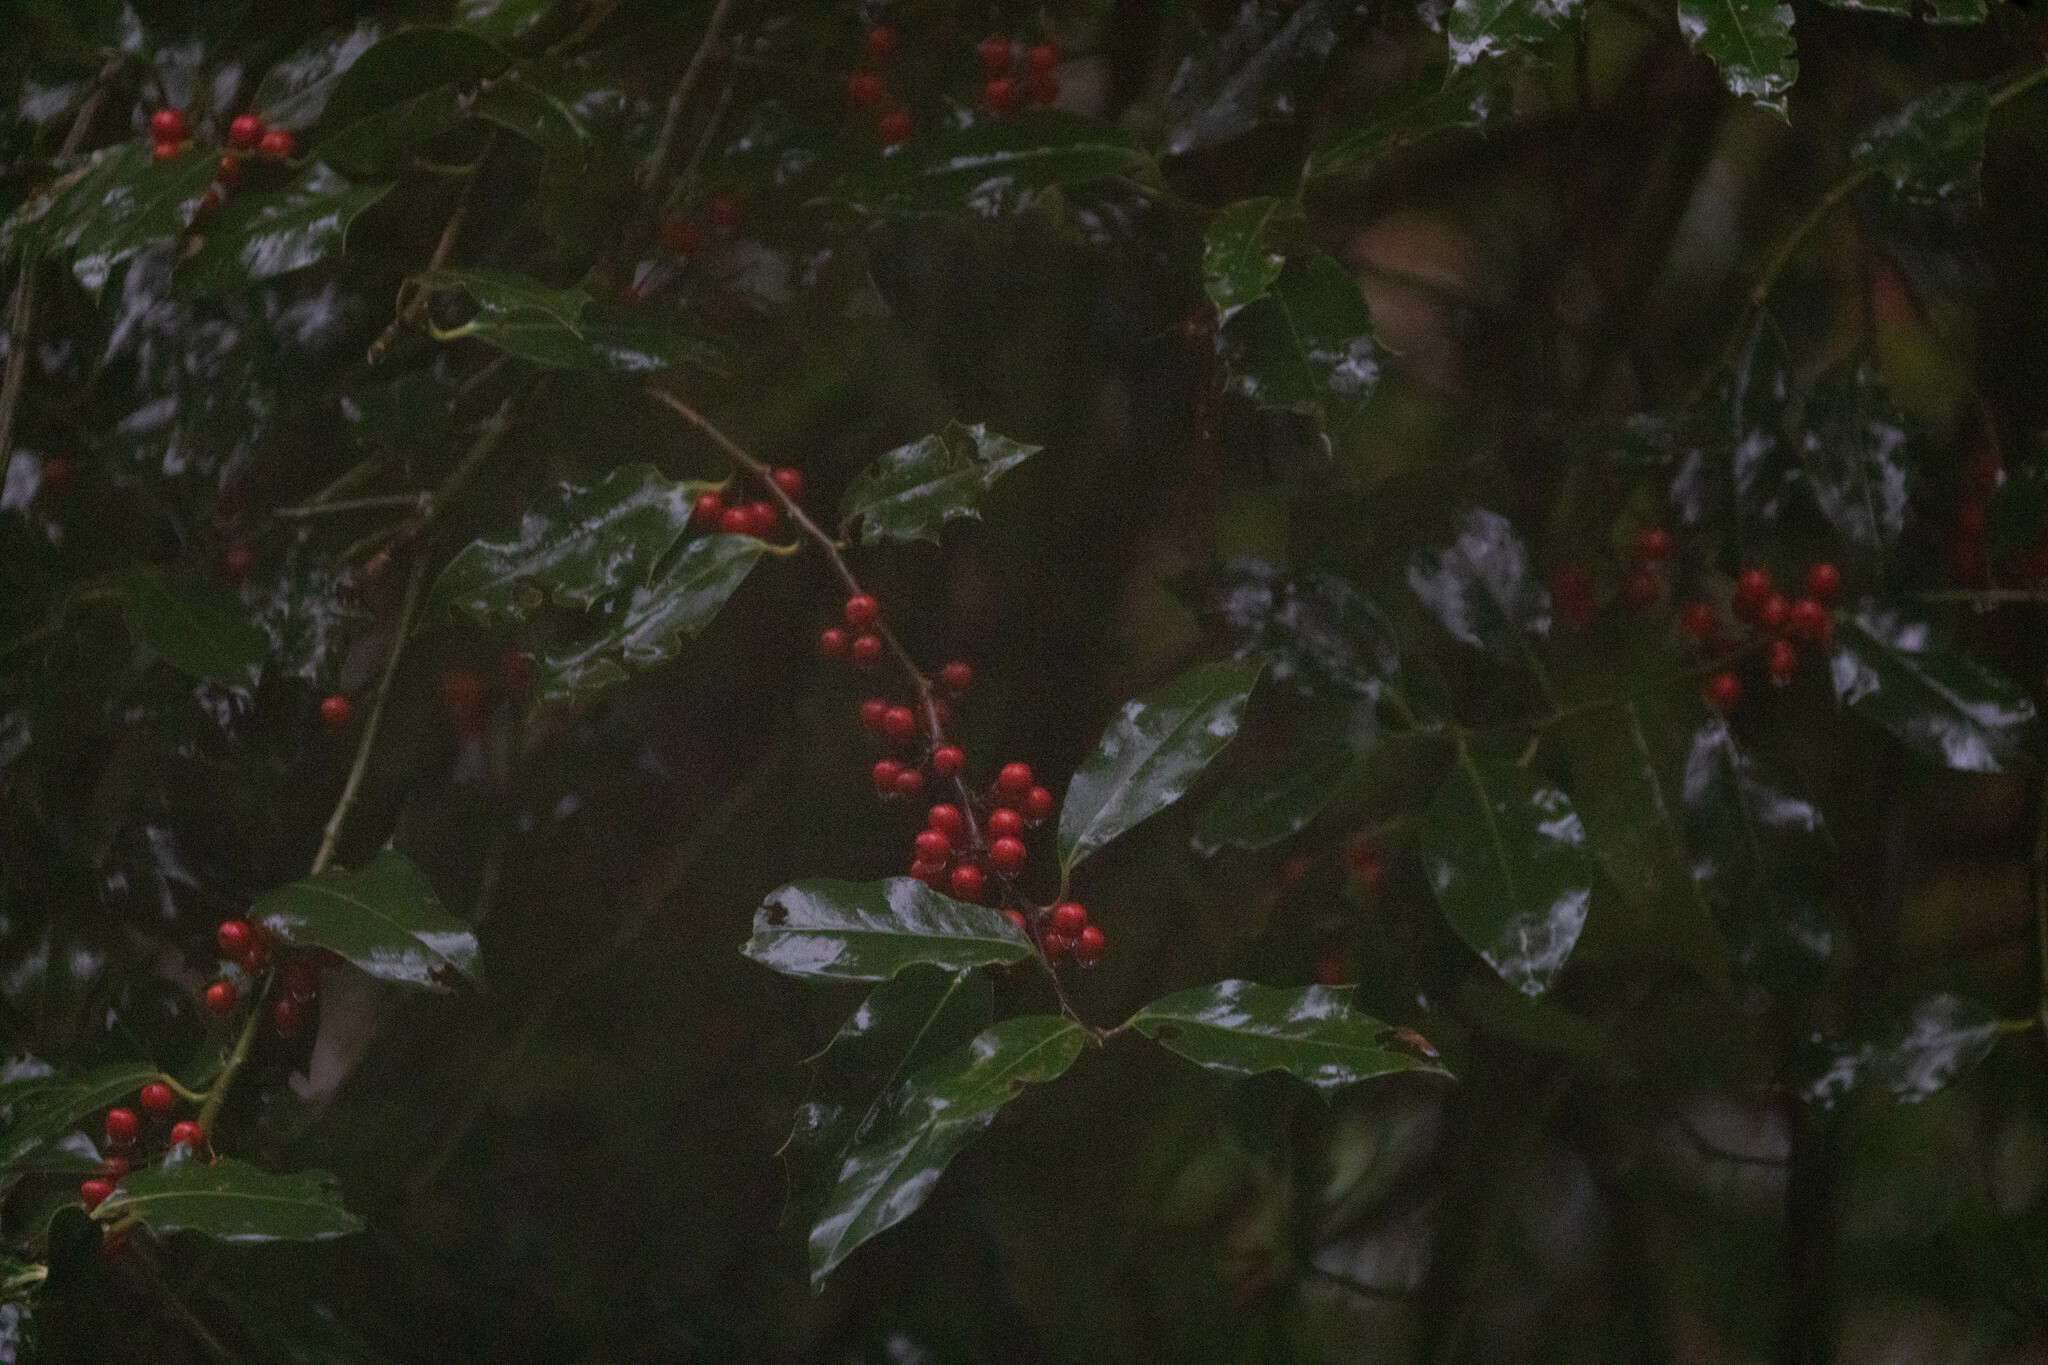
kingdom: Plantae
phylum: Tracheophyta
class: Magnoliopsida
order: Aquifoliales
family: Aquifoliaceae
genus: Ilex
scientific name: Ilex aquifolium
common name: English holly
